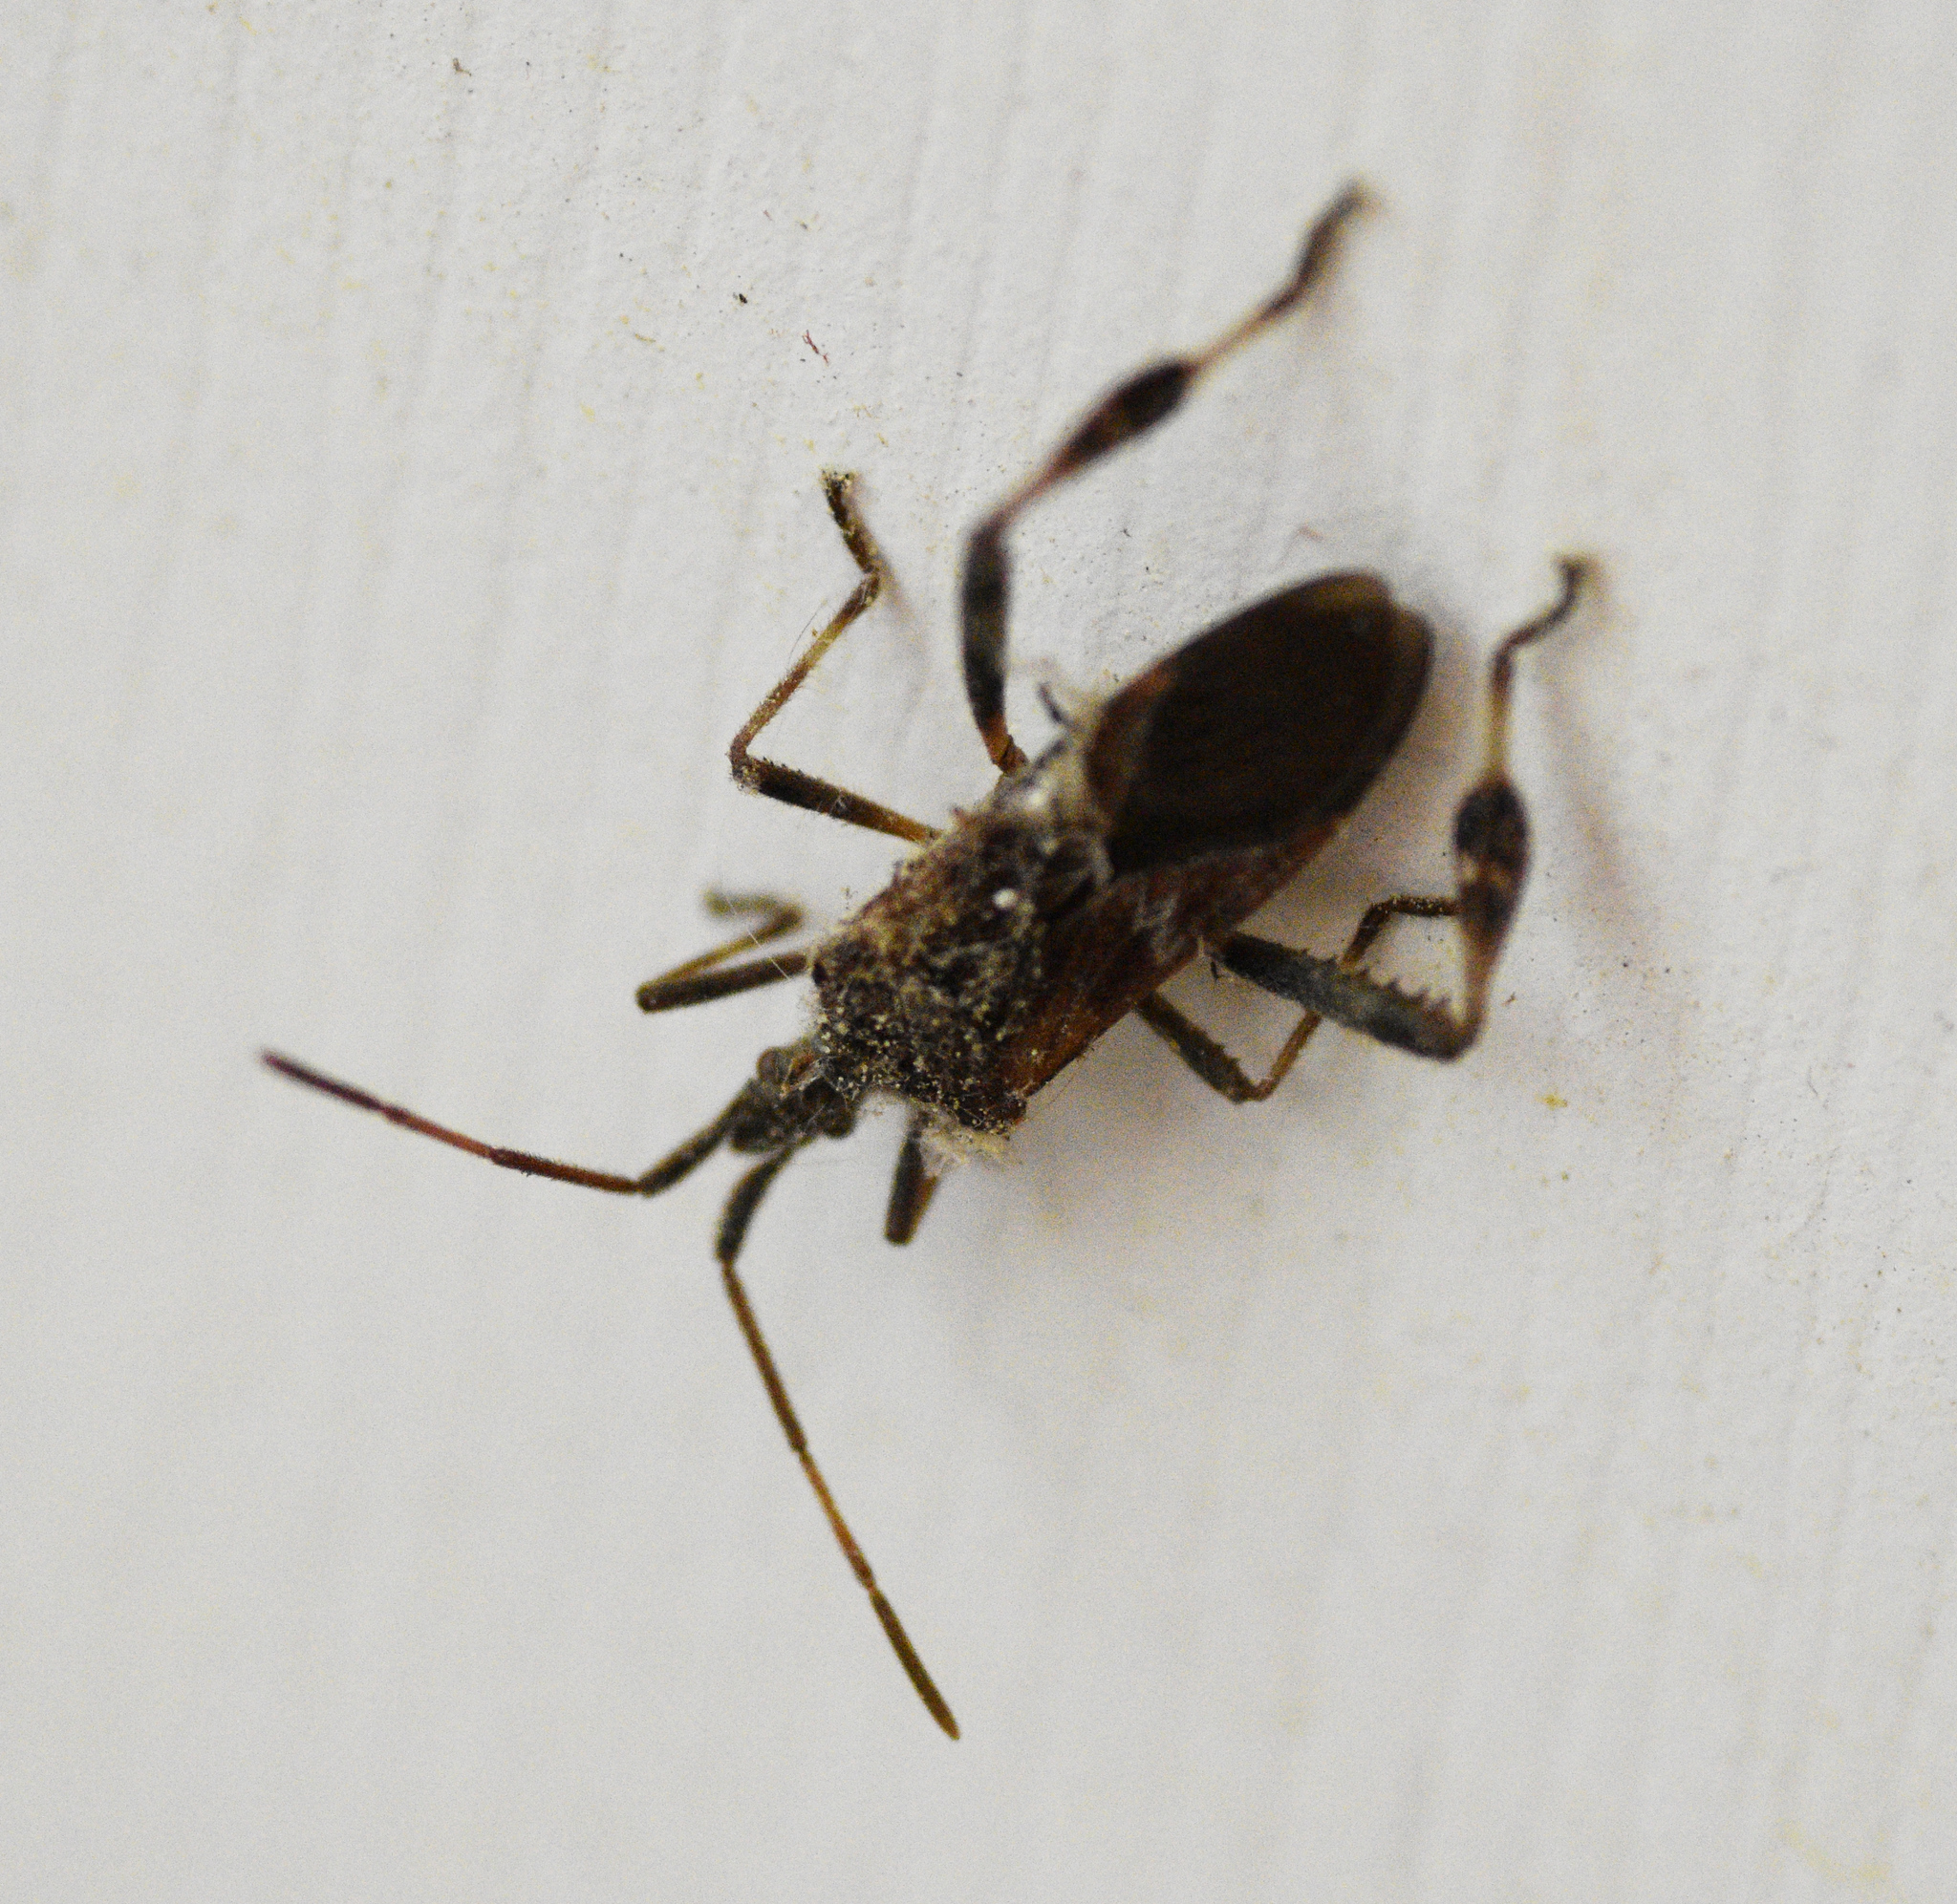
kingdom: Animalia
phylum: Arthropoda
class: Insecta
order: Hemiptera
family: Coreidae
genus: Leptoglossus
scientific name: Leptoglossus occidentalis
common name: Western conifer-seed bug
